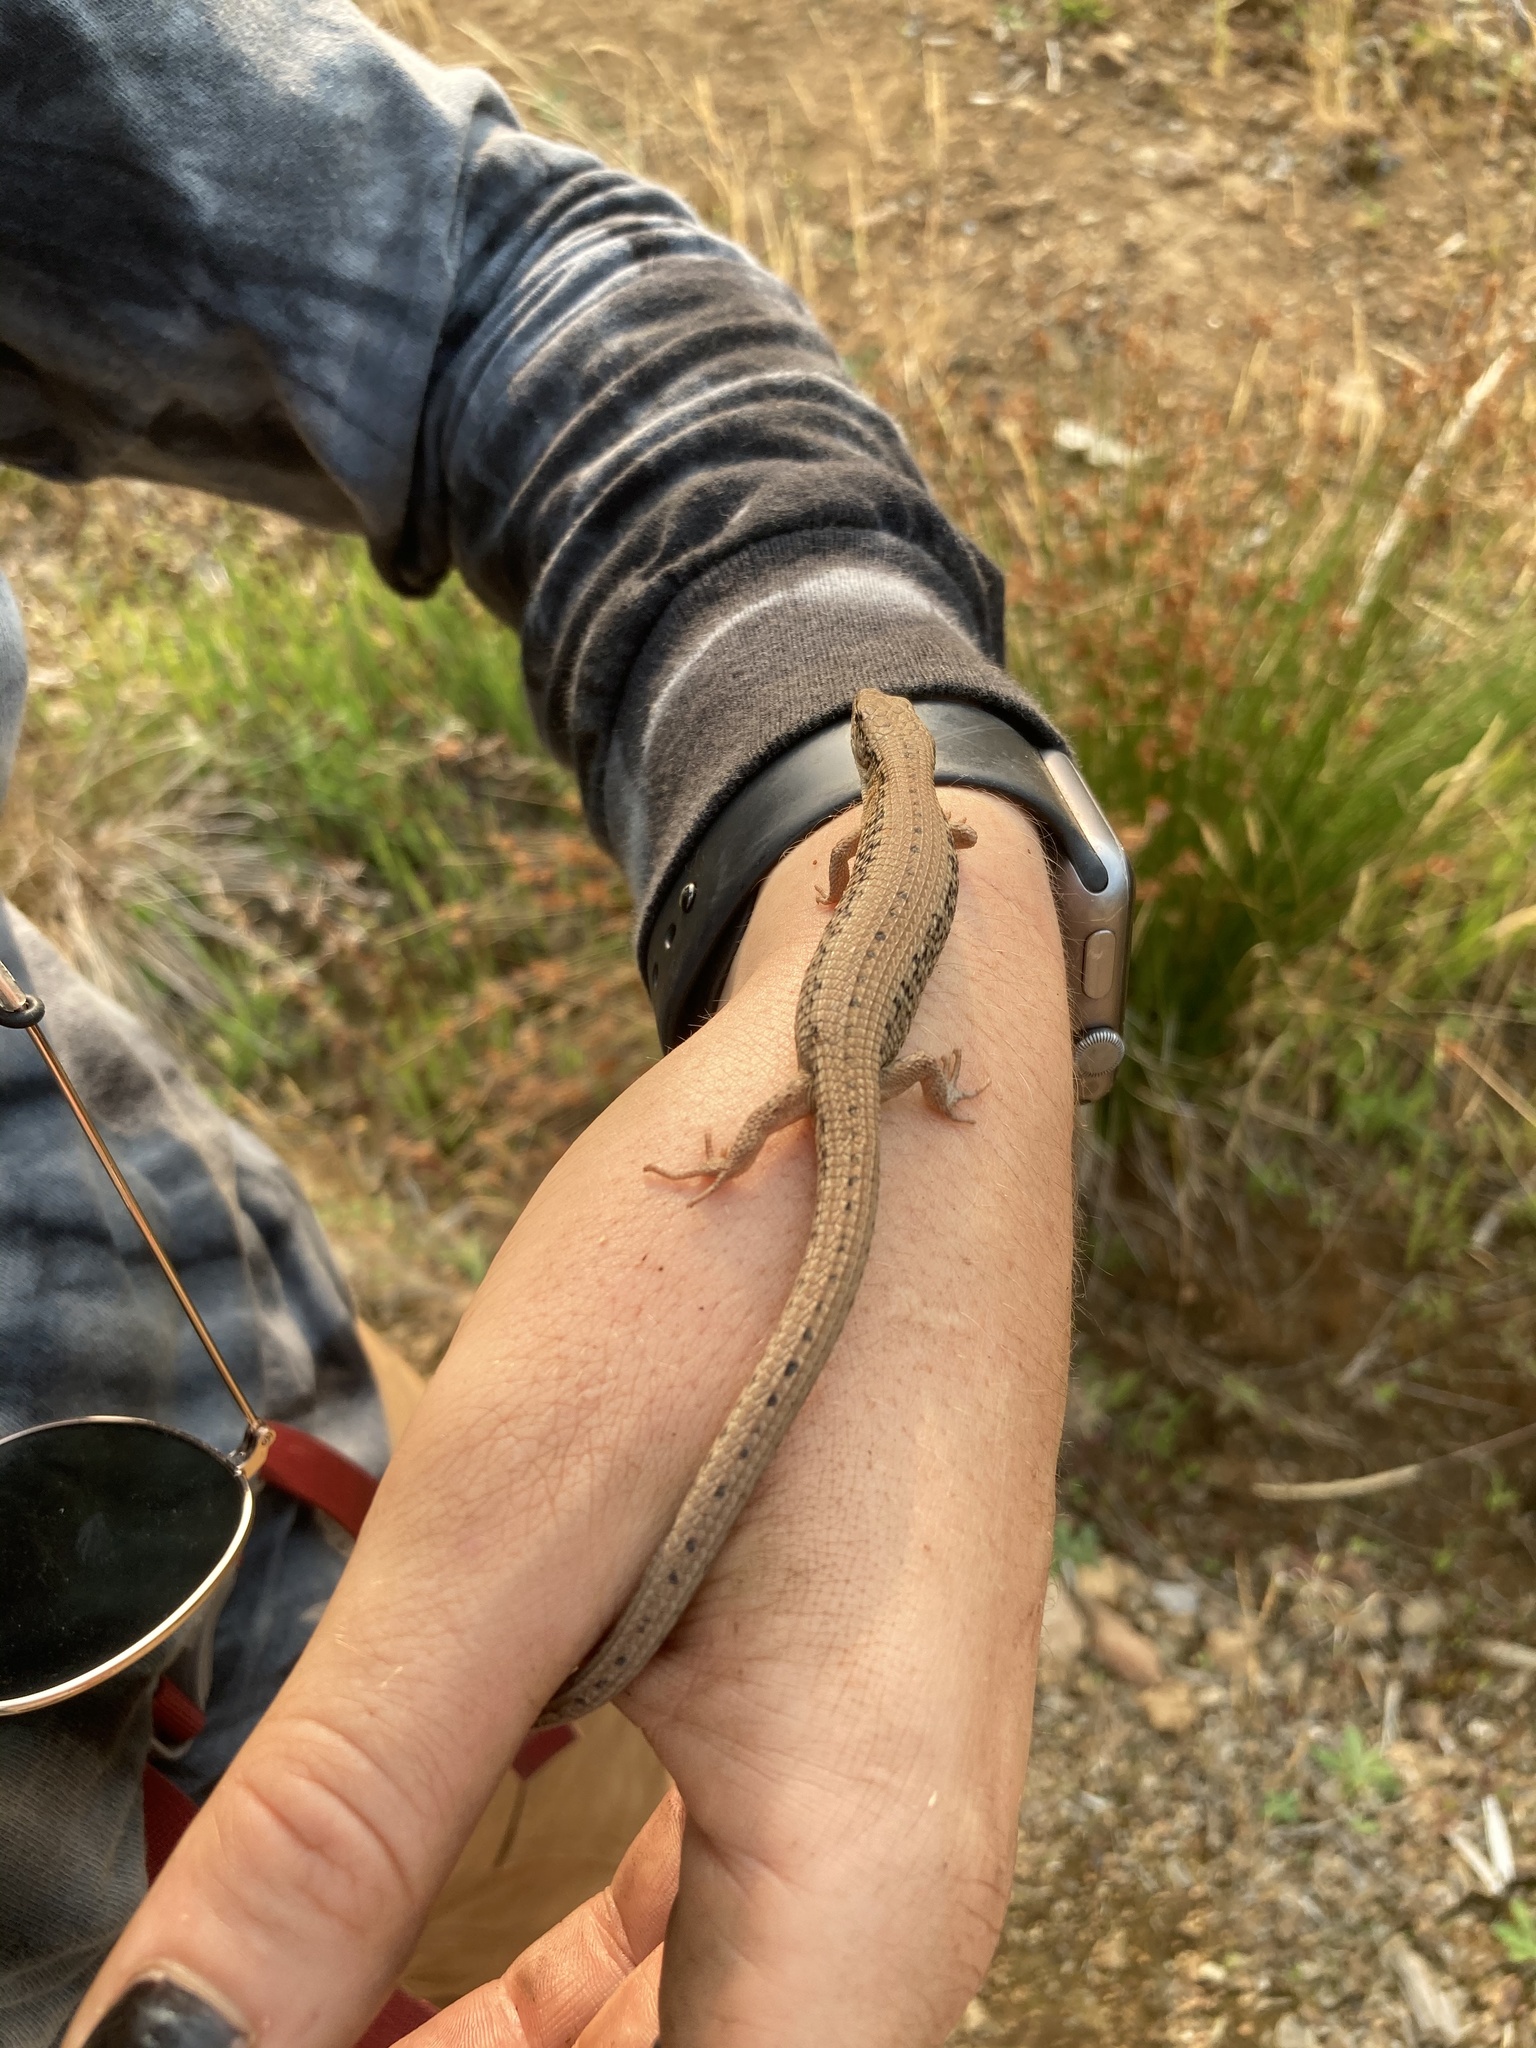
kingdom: Animalia
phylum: Chordata
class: Squamata
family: Anguidae
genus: Elgaria
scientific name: Elgaria coerulea
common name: Northern alligator lizard
